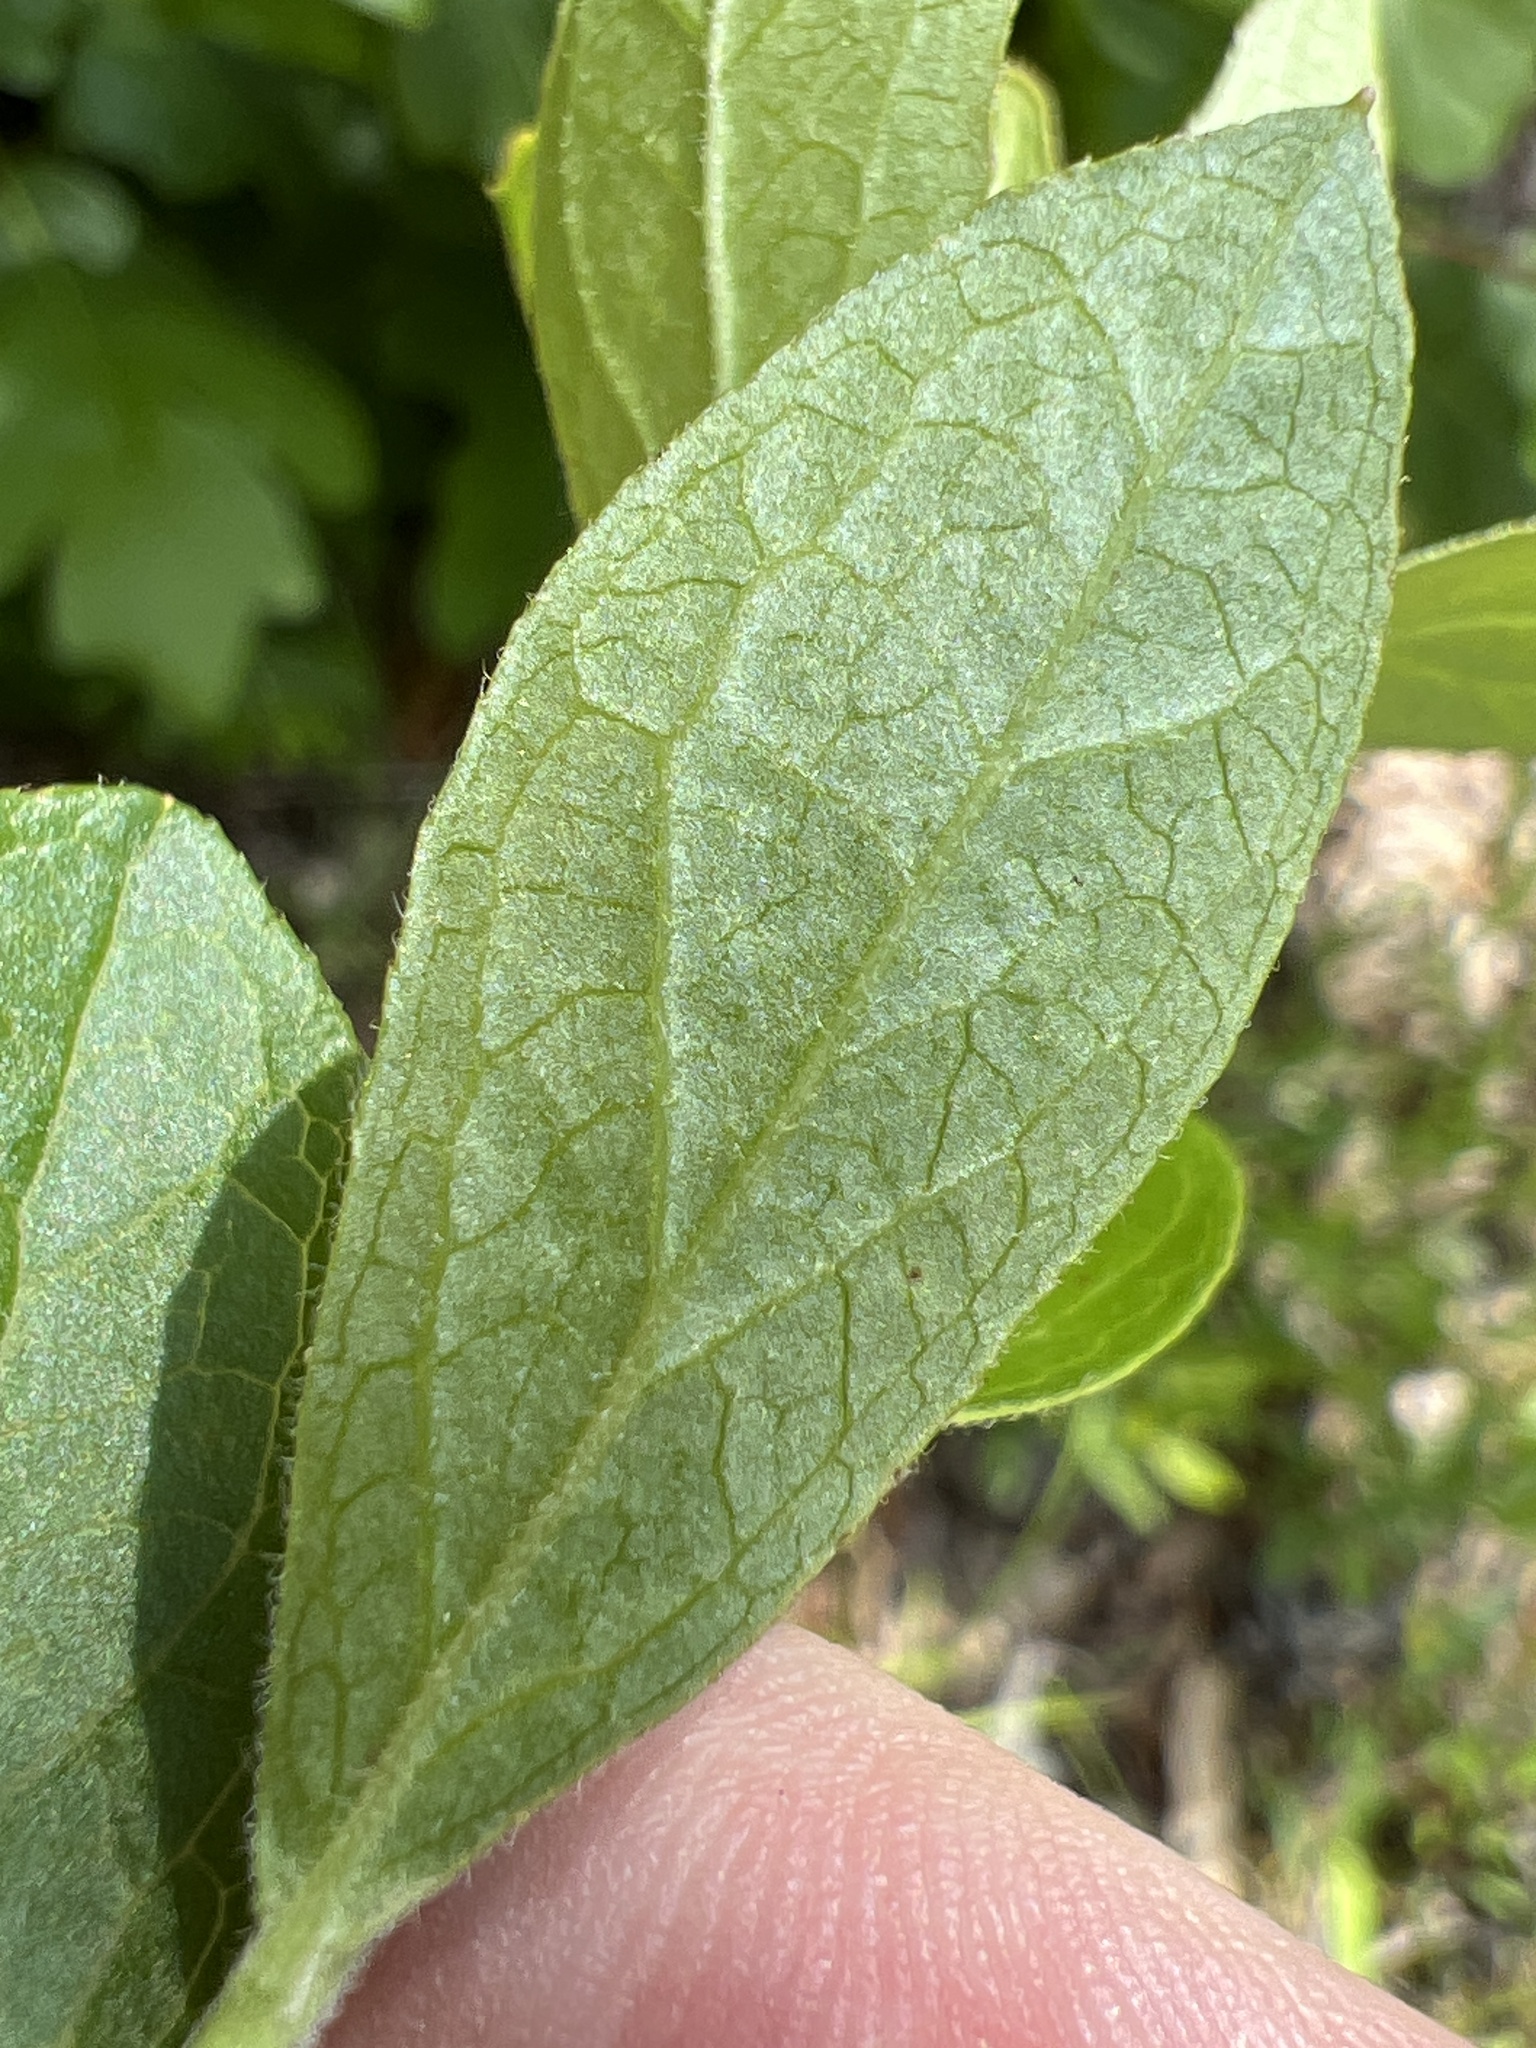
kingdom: Plantae
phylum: Tracheophyta
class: Magnoliopsida
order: Ericales
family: Ericaceae
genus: Vaccinium
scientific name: Vaccinium tenellum
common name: Southern blueberry
